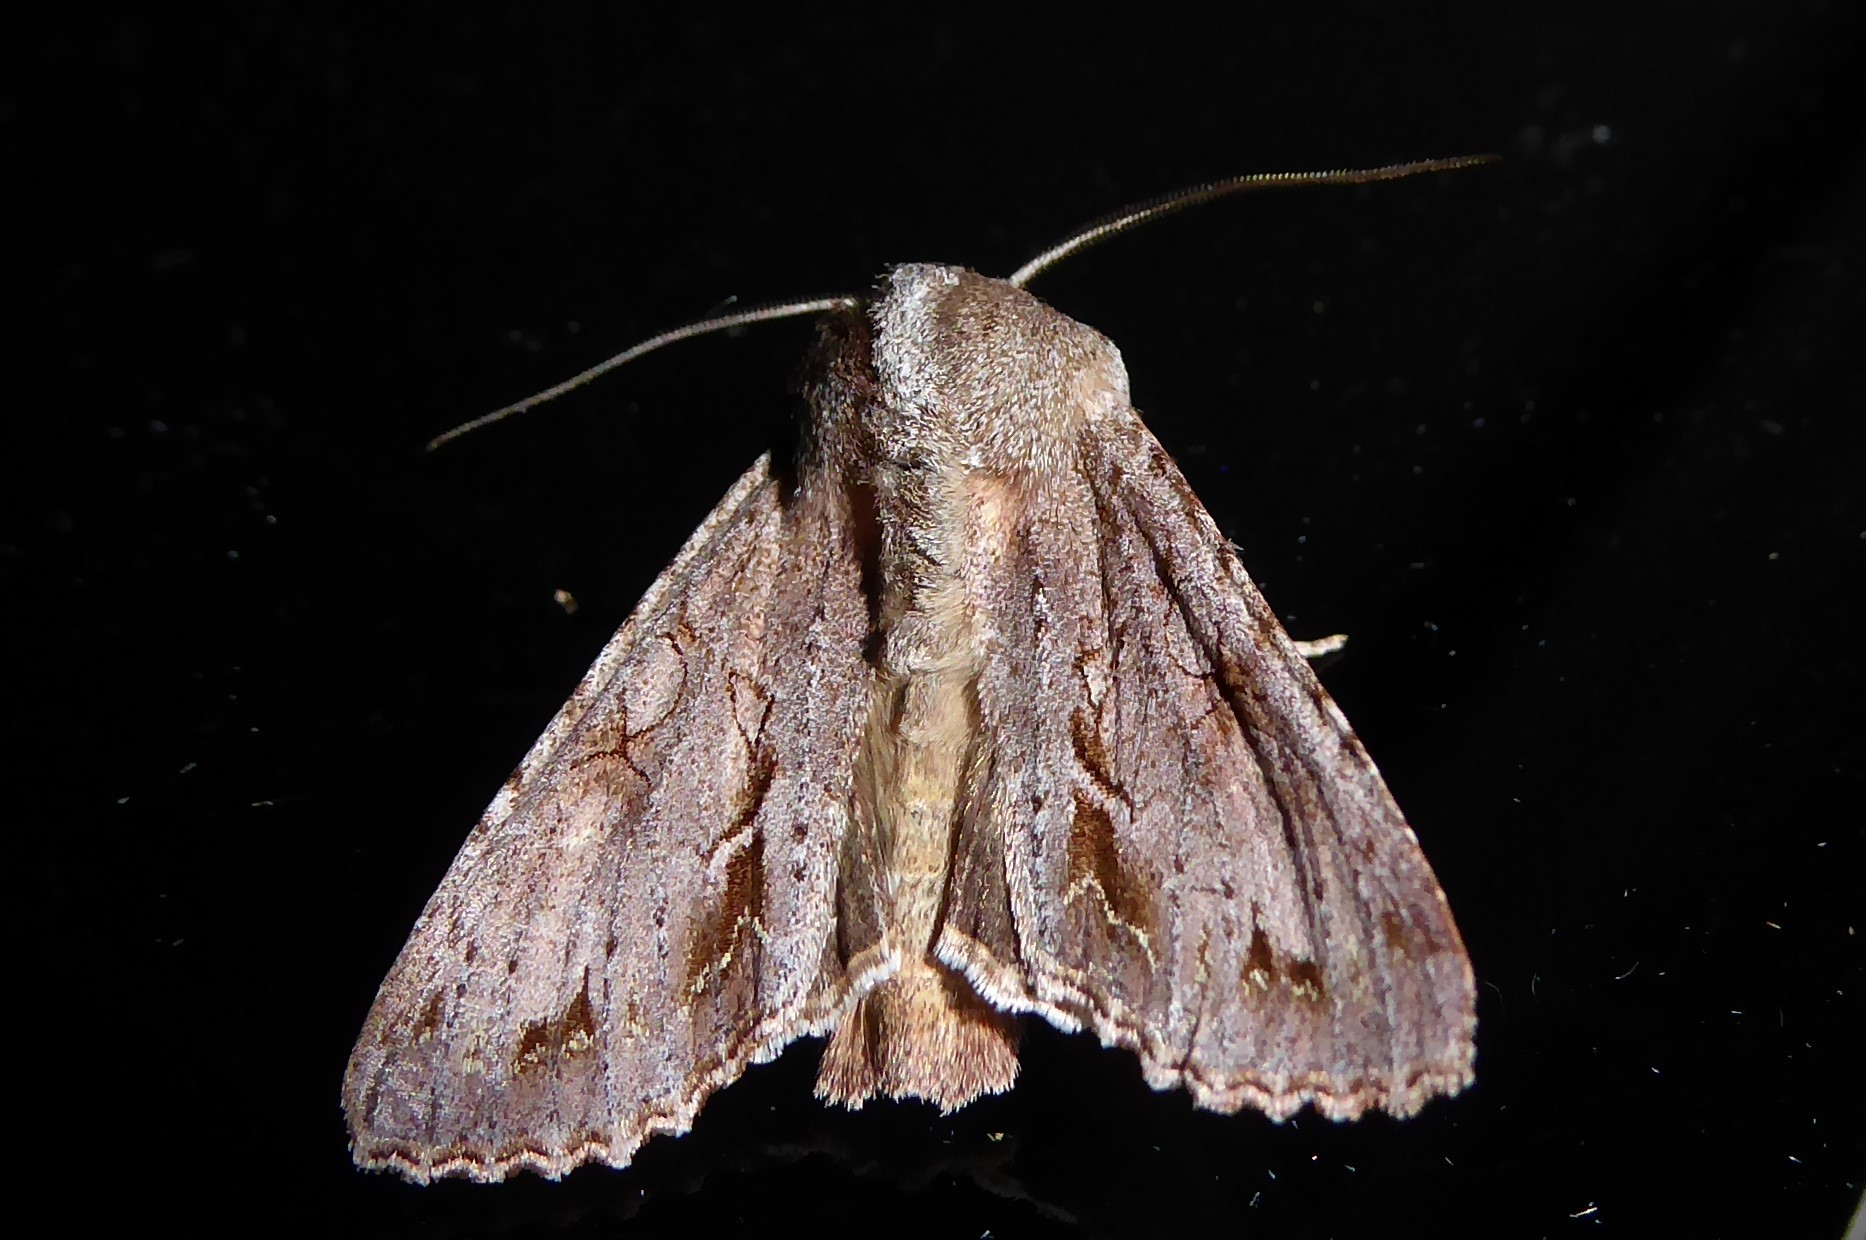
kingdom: Animalia
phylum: Arthropoda
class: Insecta
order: Lepidoptera
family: Noctuidae
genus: Ichneutica
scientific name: Ichneutica
